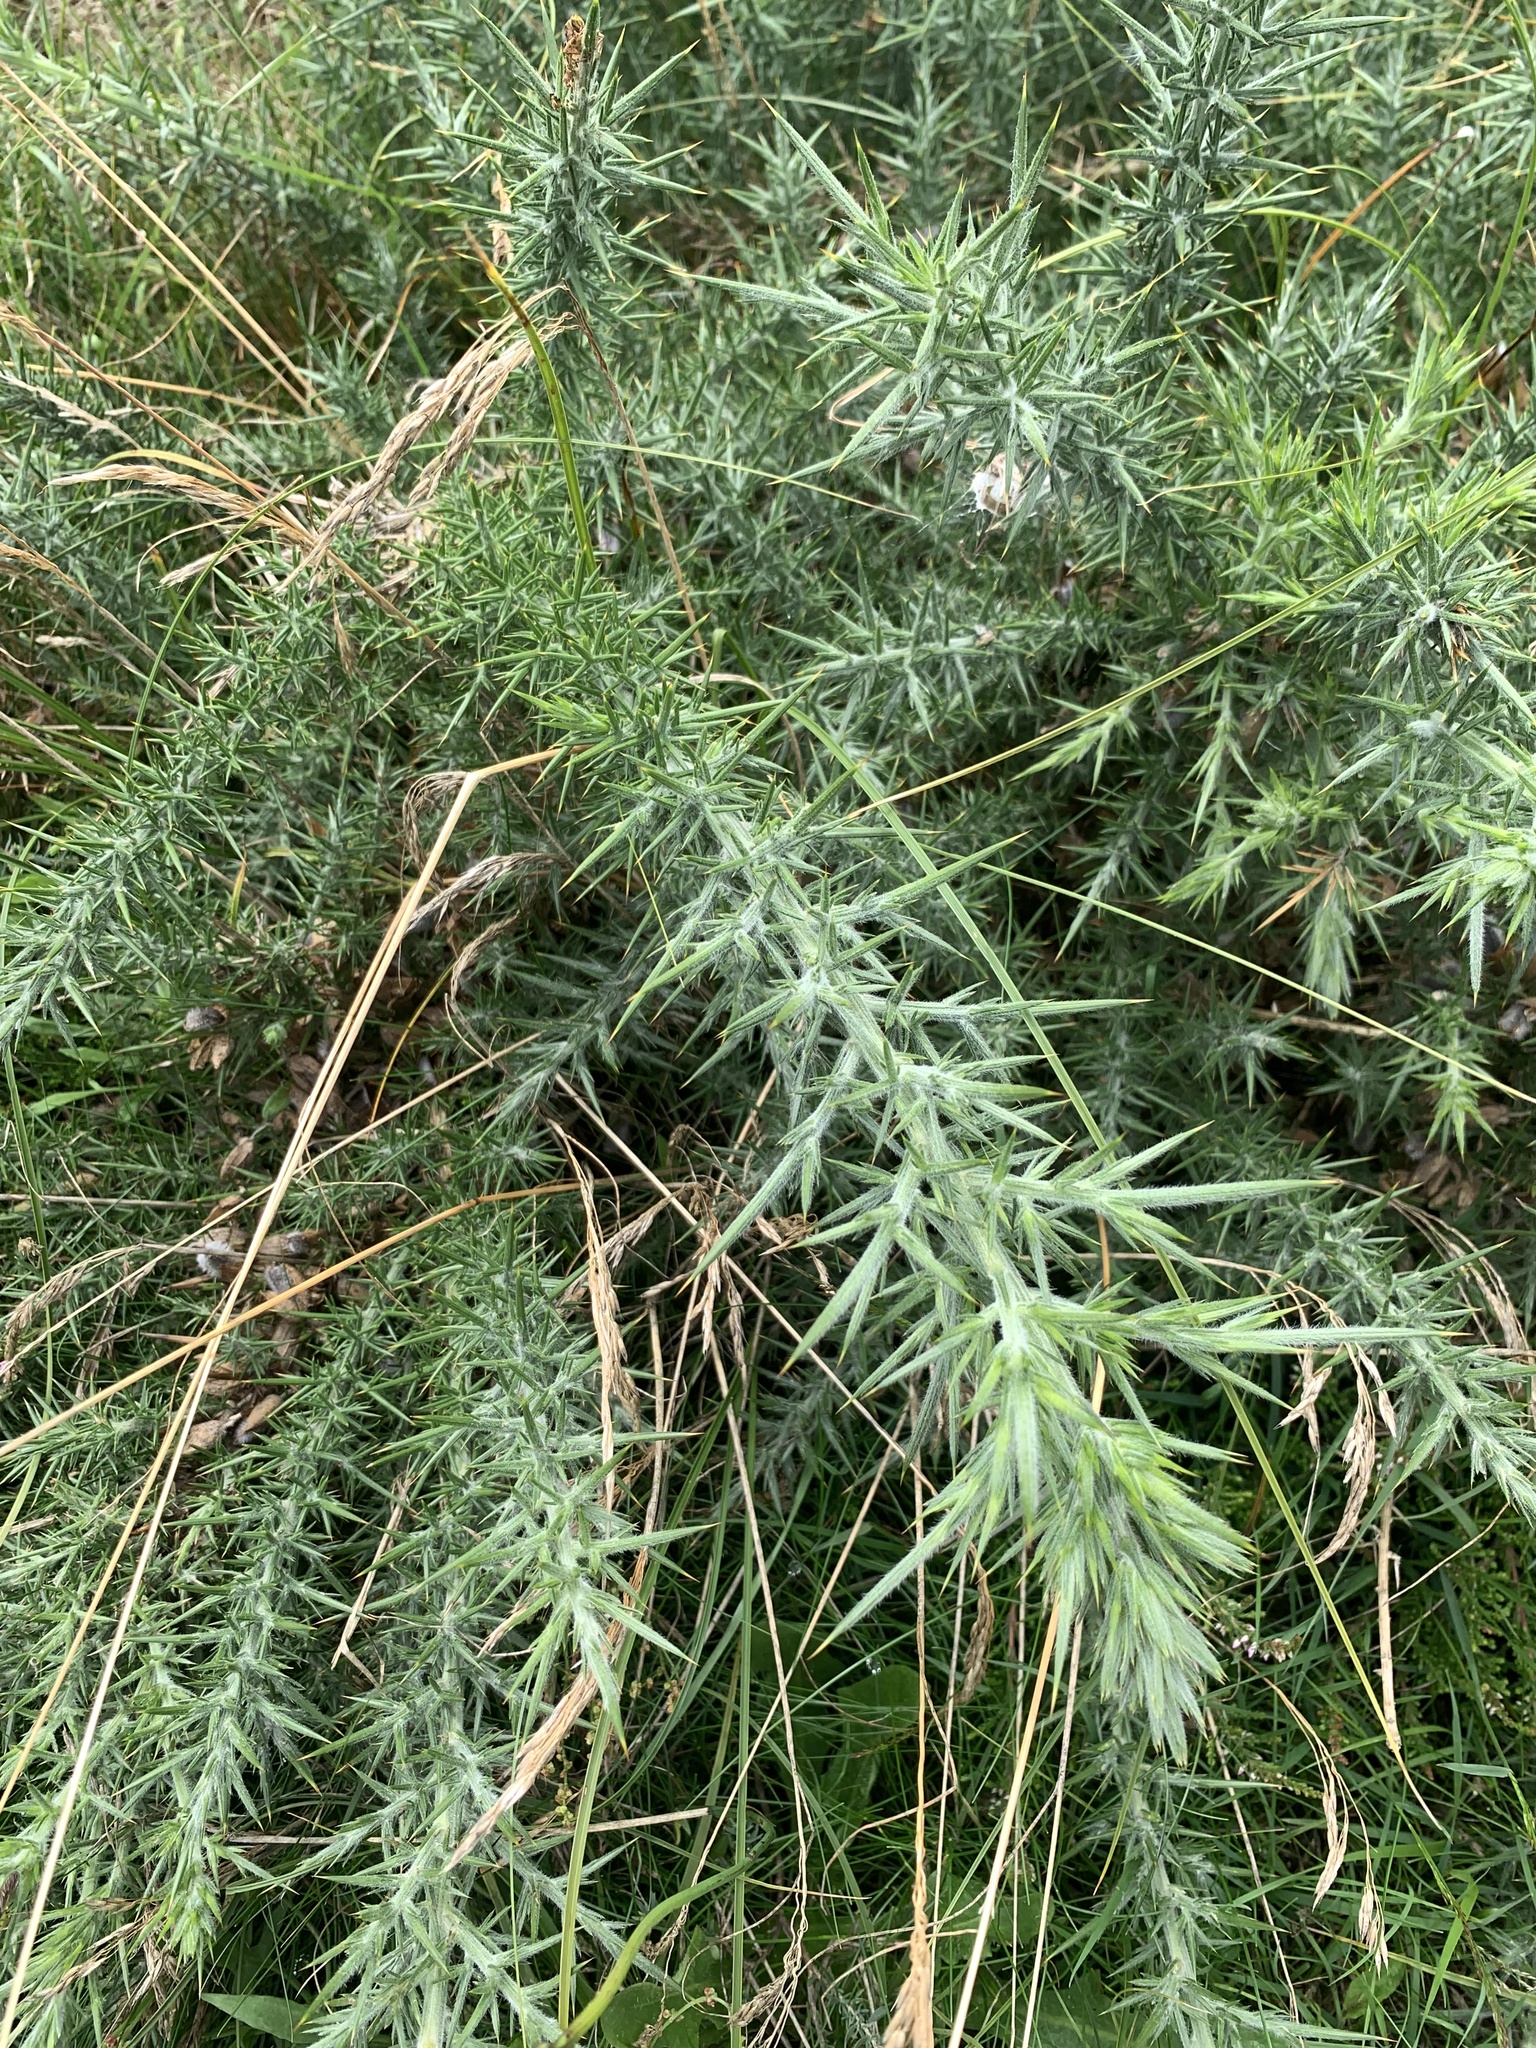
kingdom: Plantae
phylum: Tracheophyta
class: Magnoliopsida
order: Fabales
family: Fabaceae
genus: Ulex
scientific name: Ulex europaeus
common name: Common gorse
